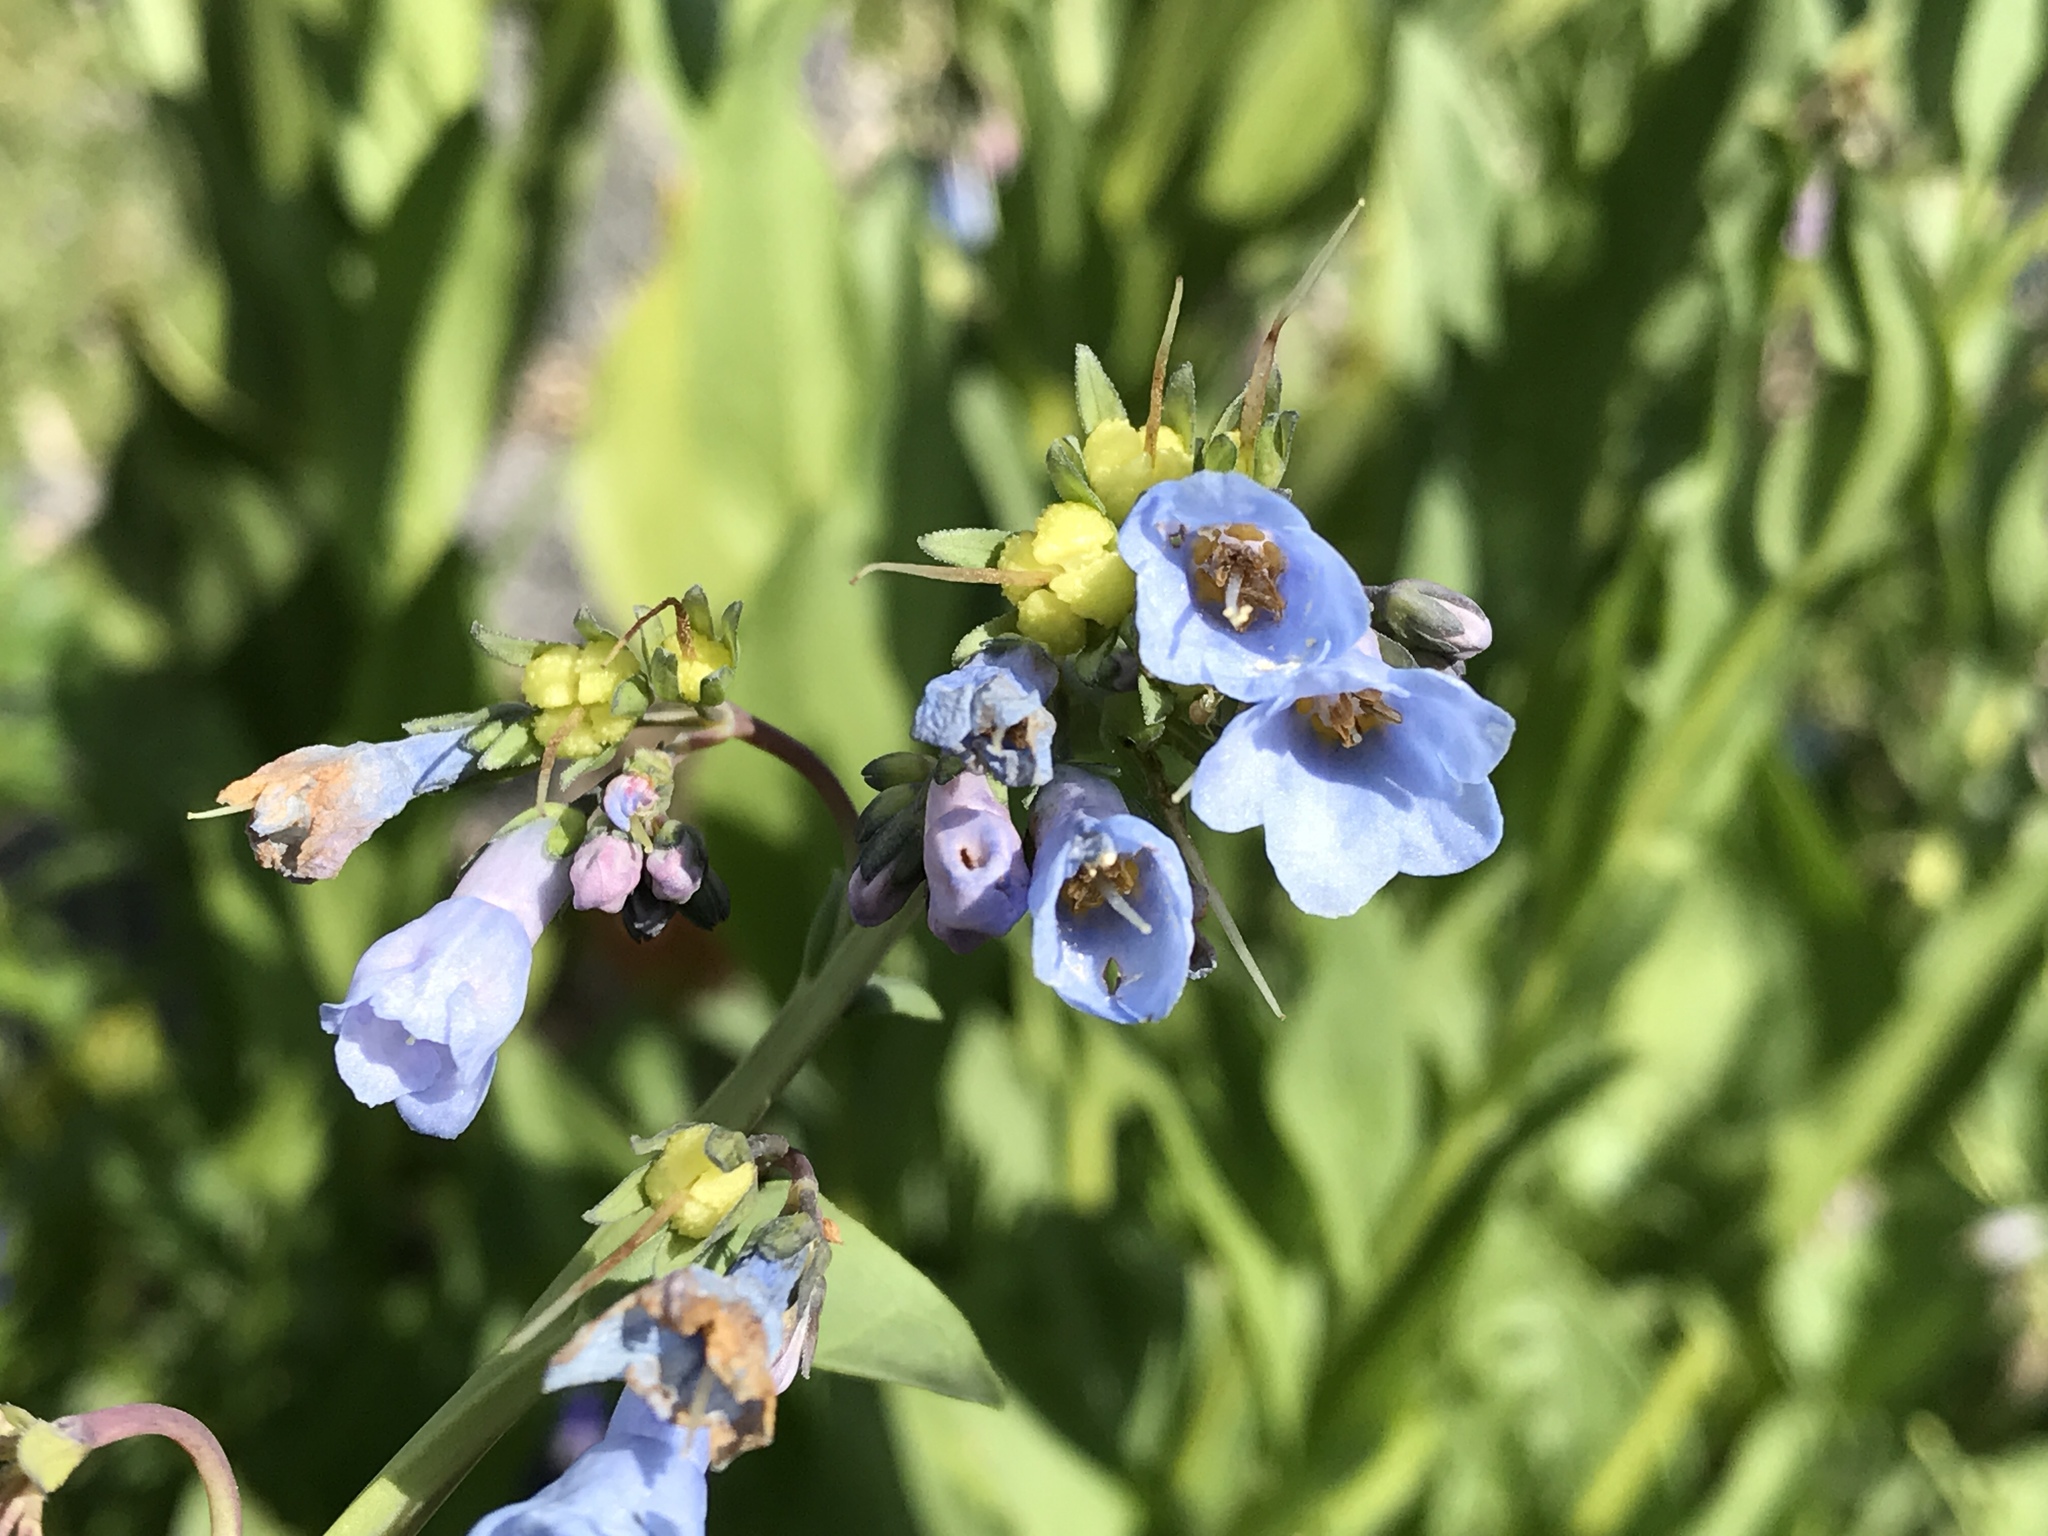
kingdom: Plantae
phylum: Tracheophyta
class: Magnoliopsida
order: Boraginales
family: Boraginaceae
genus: Mertensia
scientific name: Mertensia ciliata
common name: Tall chiming-bells
